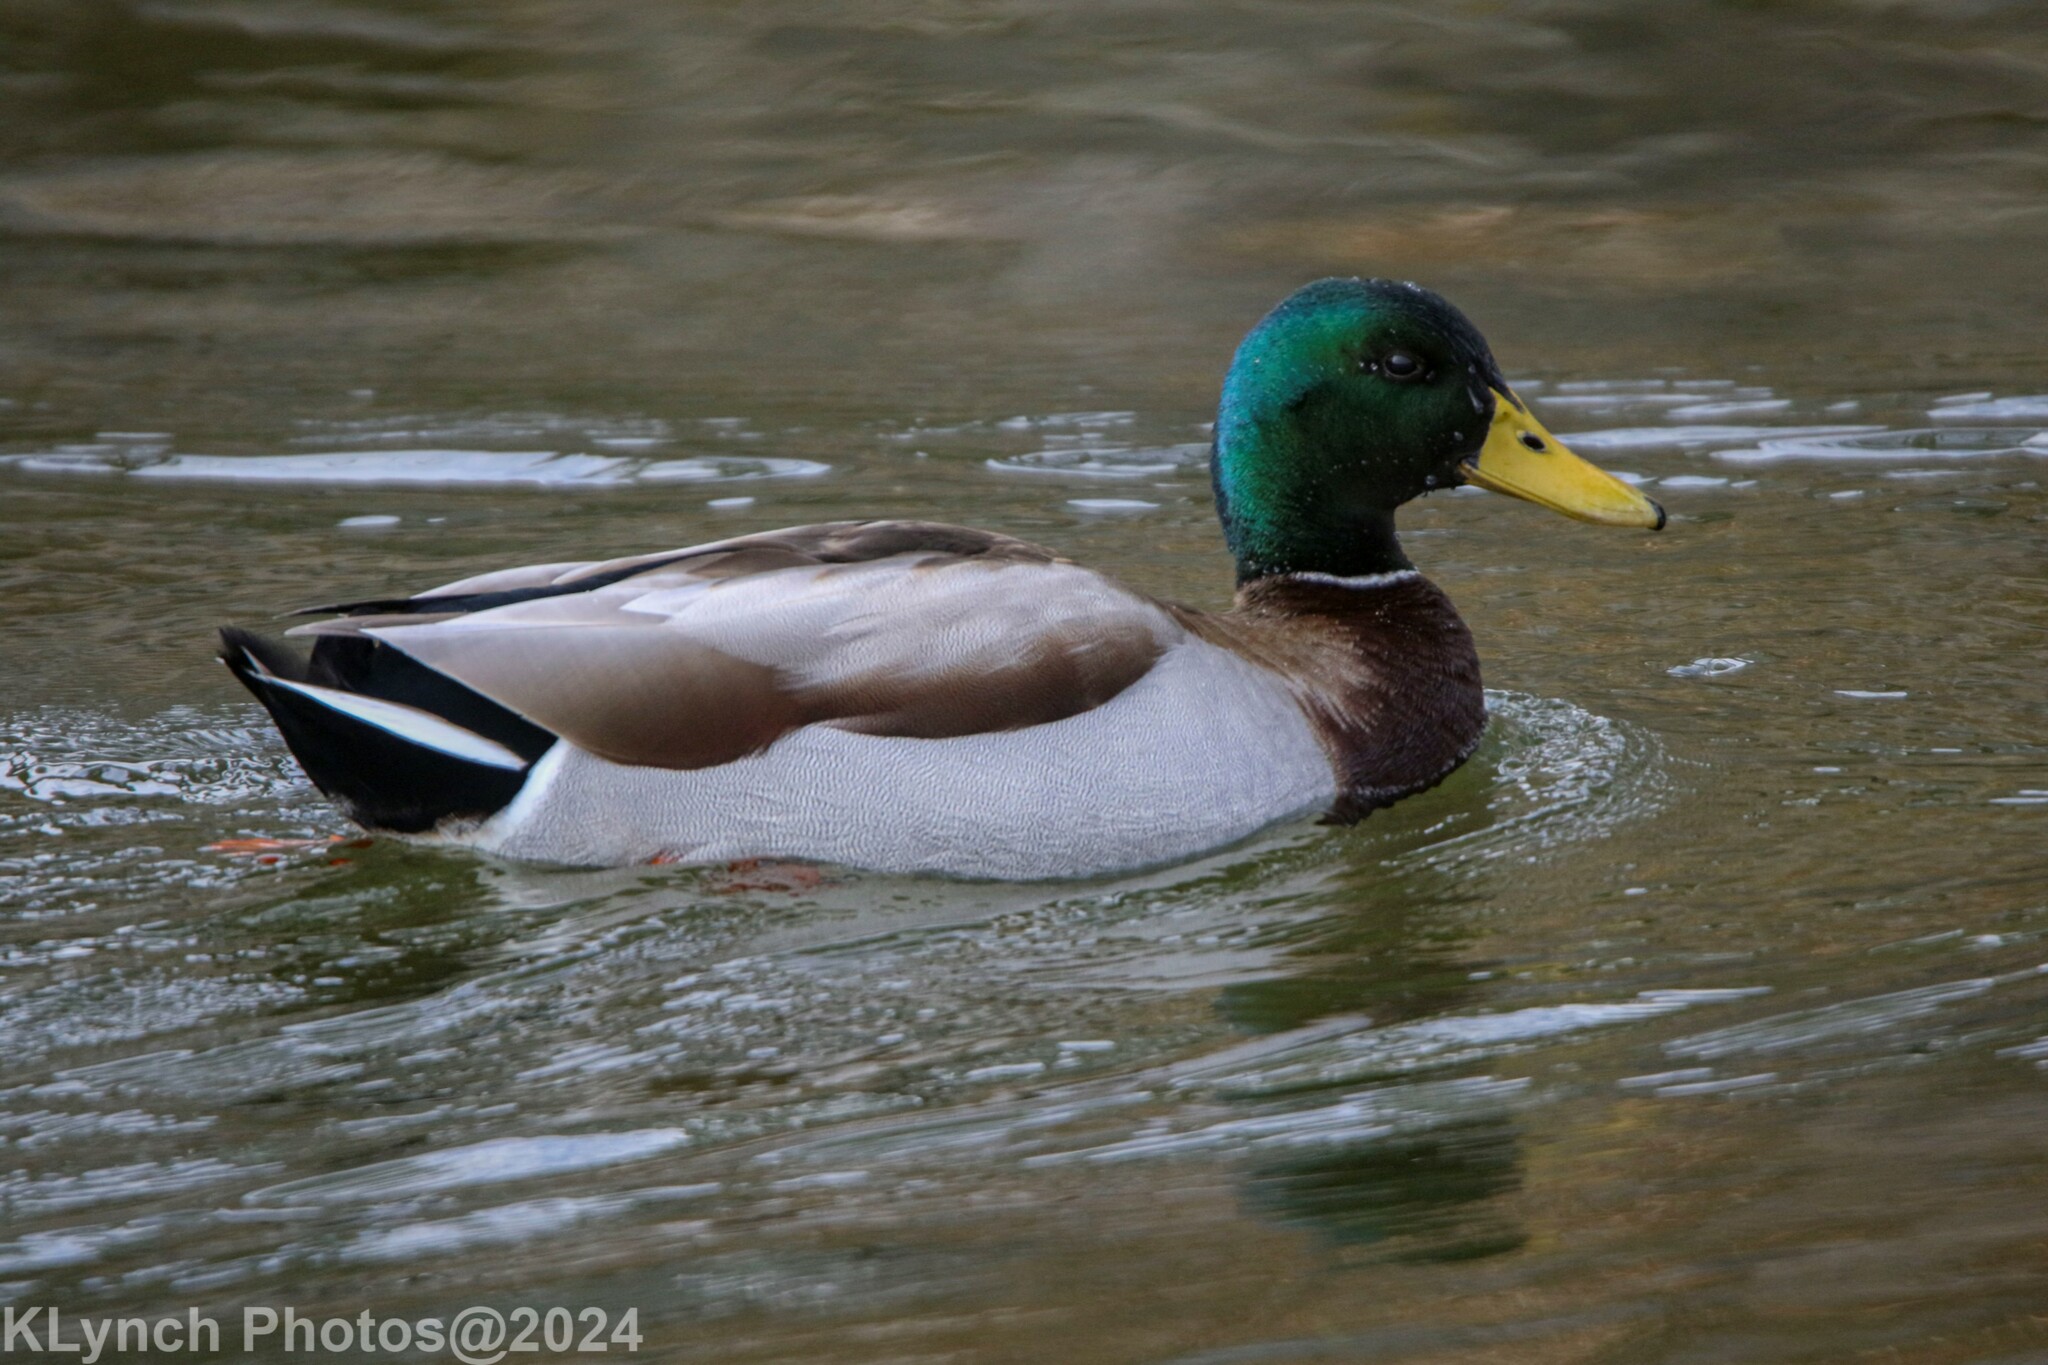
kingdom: Animalia
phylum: Chordata
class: Aves
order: Anseriformes
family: Anatidae
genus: Anas
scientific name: Anas platyrhynchos
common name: Mallard
